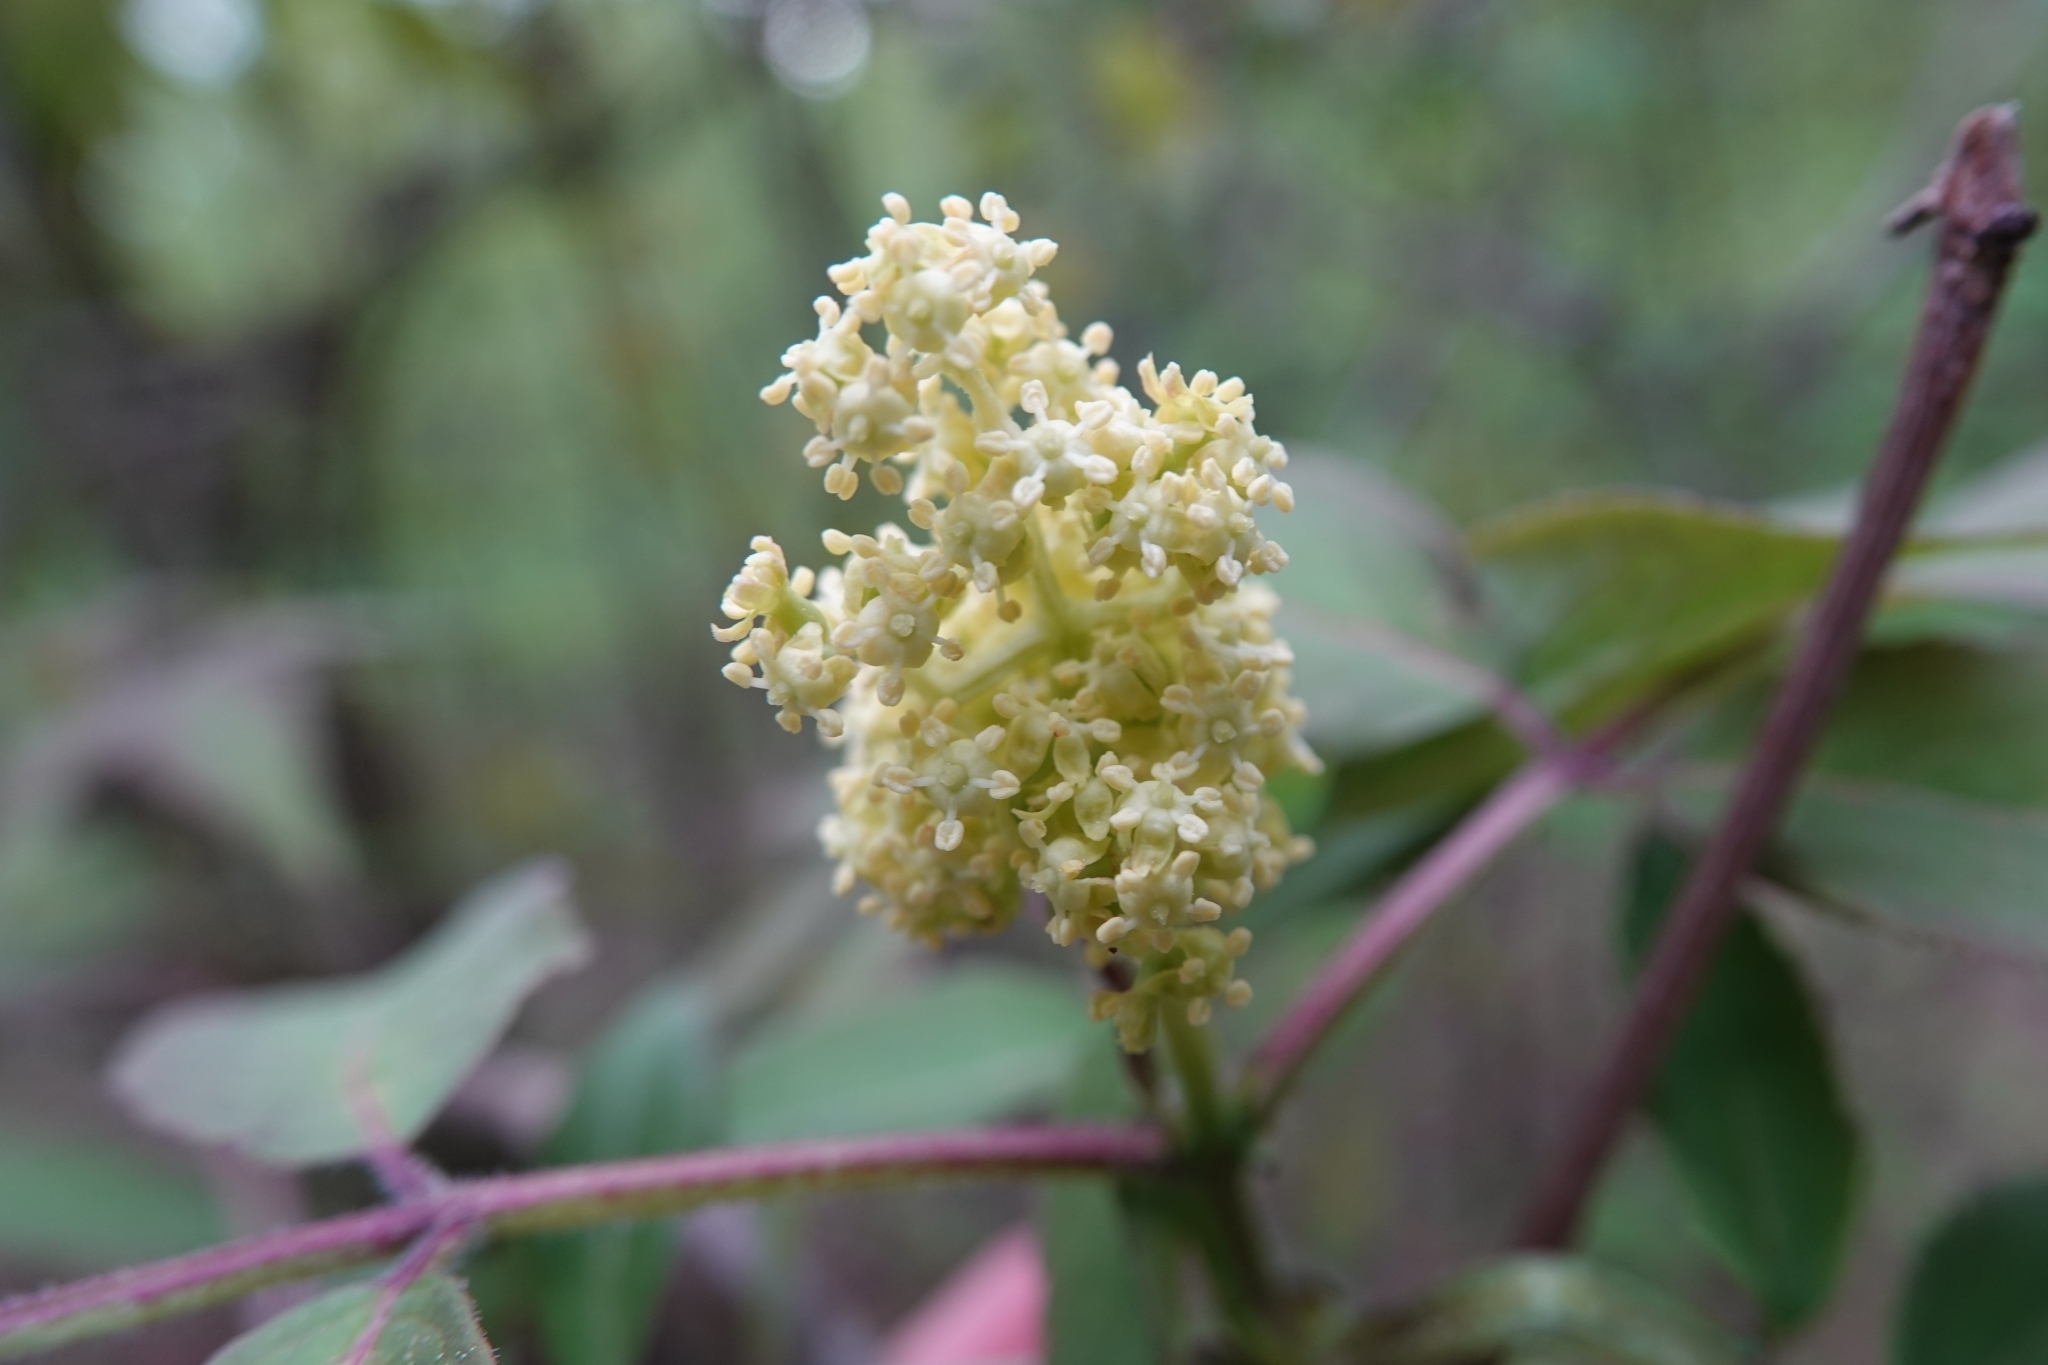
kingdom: Plantae
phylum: Tracheophyta
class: Magnoliopsida
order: Dipsacales
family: Viburnaceae
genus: Sambucus
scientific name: Sambucus racemosa
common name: Red-berried elder
